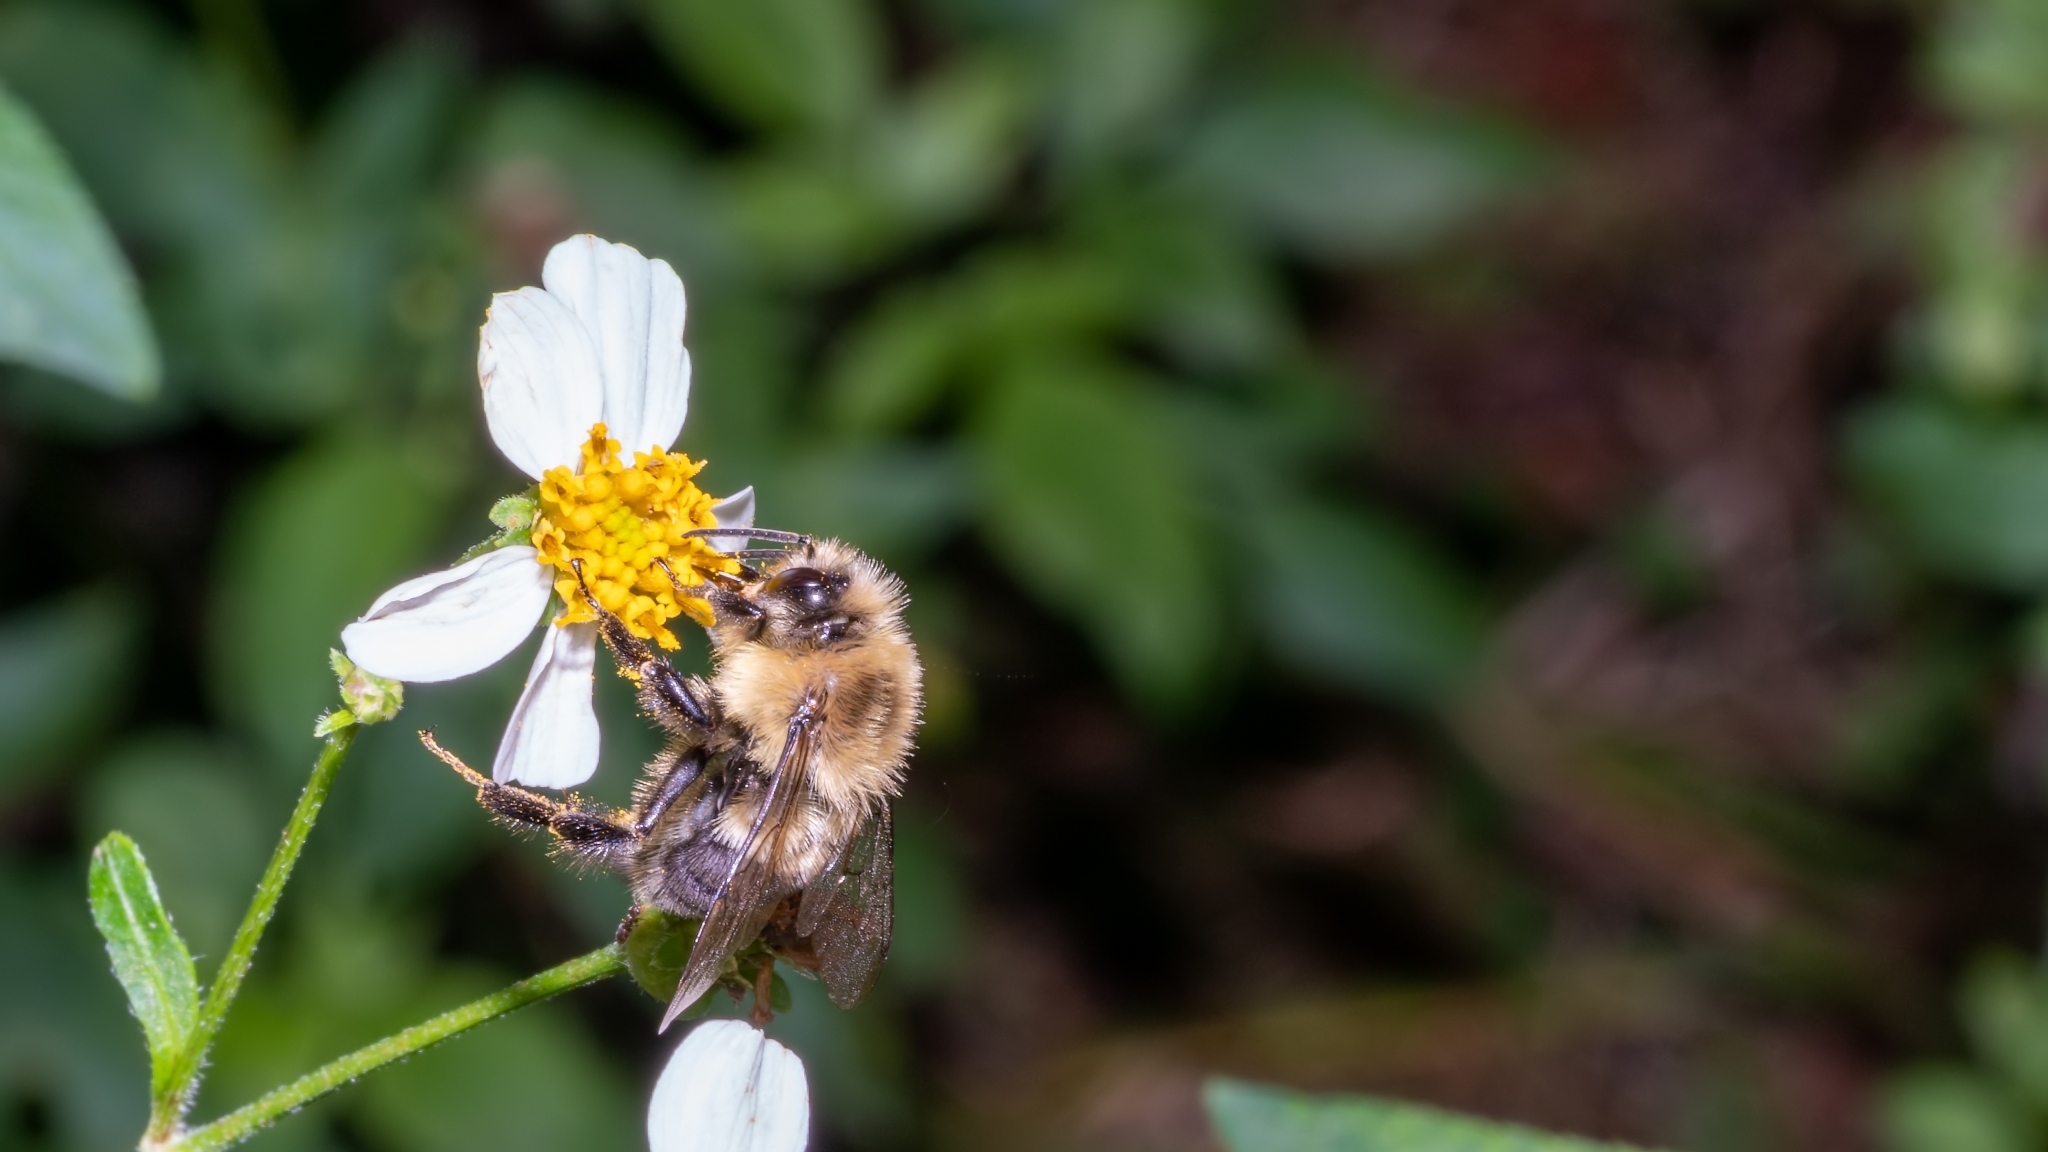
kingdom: Animalia
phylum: Arthropoda
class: Insecta
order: Hymenoptera
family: Apidae
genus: Bombus
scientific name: Bombus impatiens
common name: Common eastern bumble bee
